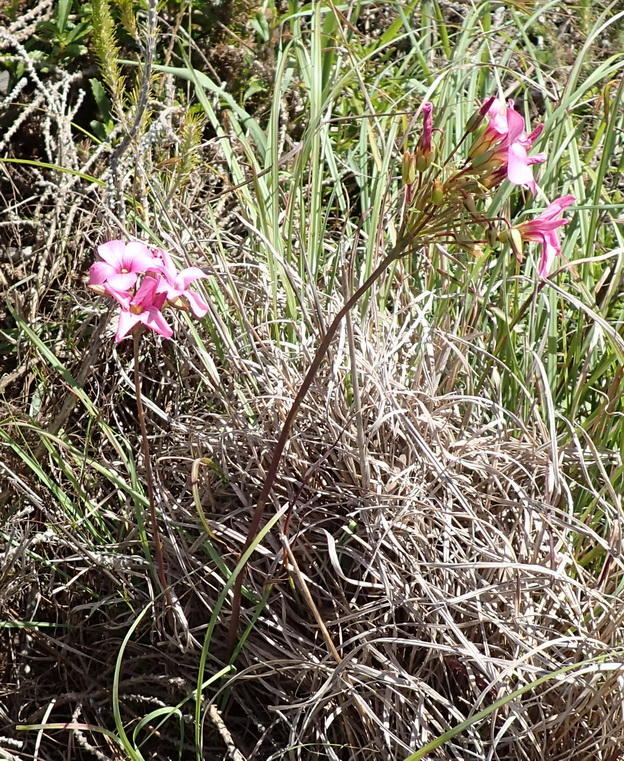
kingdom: Plantae
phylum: Tracheophyta
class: Magnoliopsida
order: Oxalidales
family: Oxalidaceae
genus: Oxalis
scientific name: Oxalis pendulifolia
